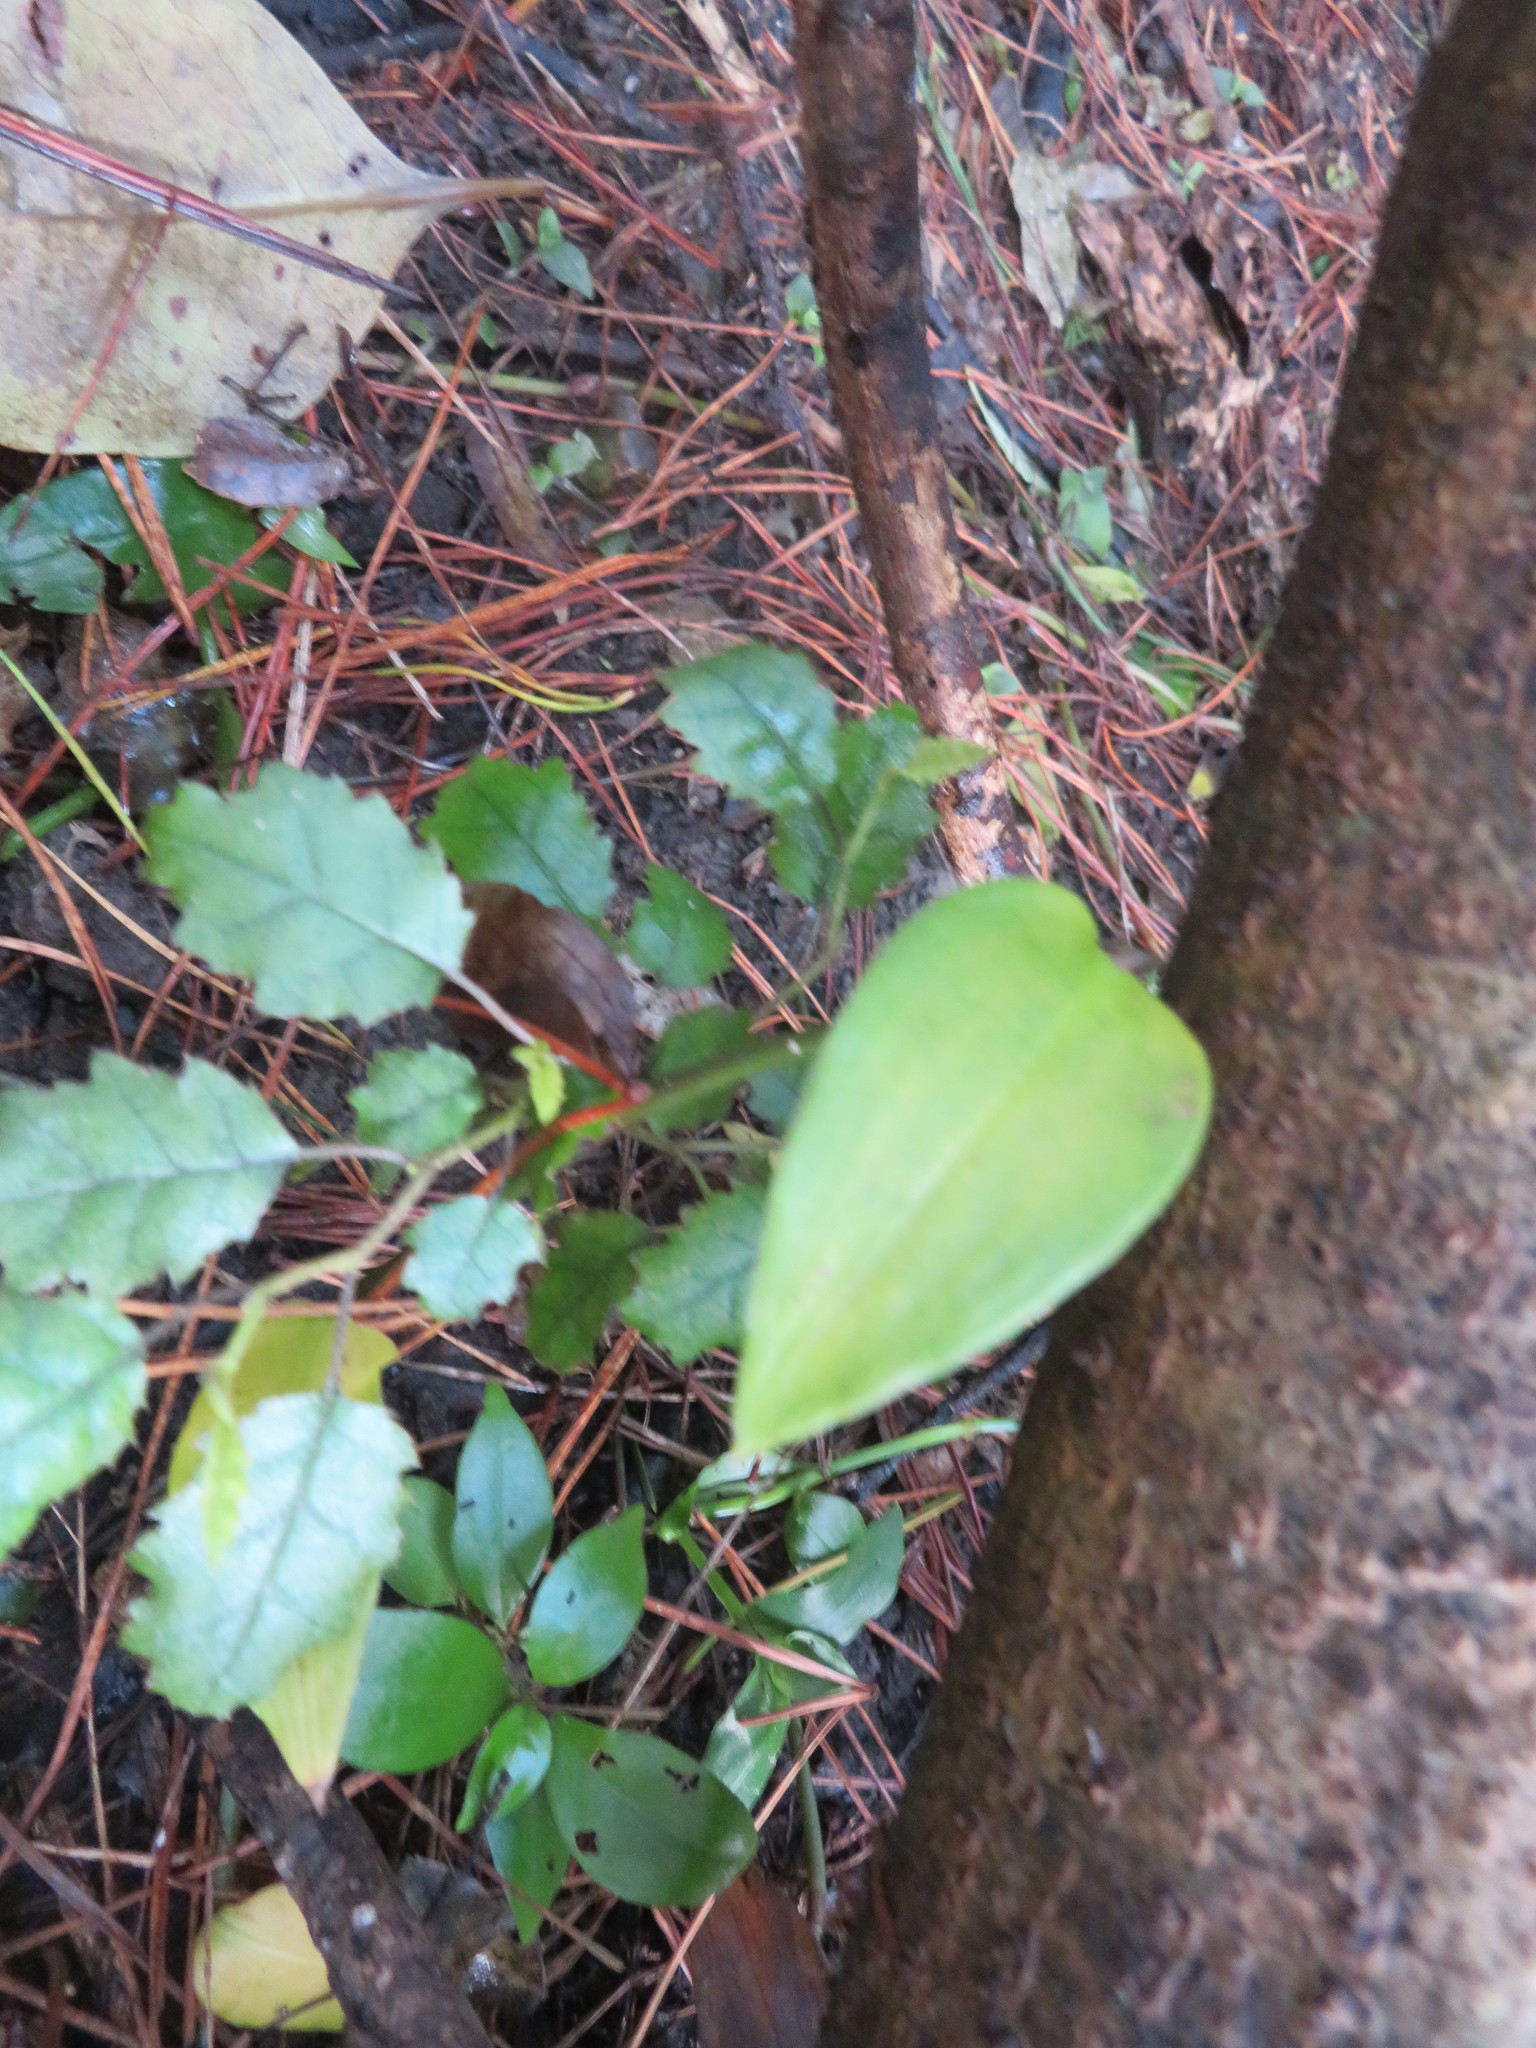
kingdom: Plantae
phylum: Tracheophyta
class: Magnoliopsida
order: Asterales
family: Rousseaceae
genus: Carpodetus
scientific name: Carpodetus serratus
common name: White mapau
